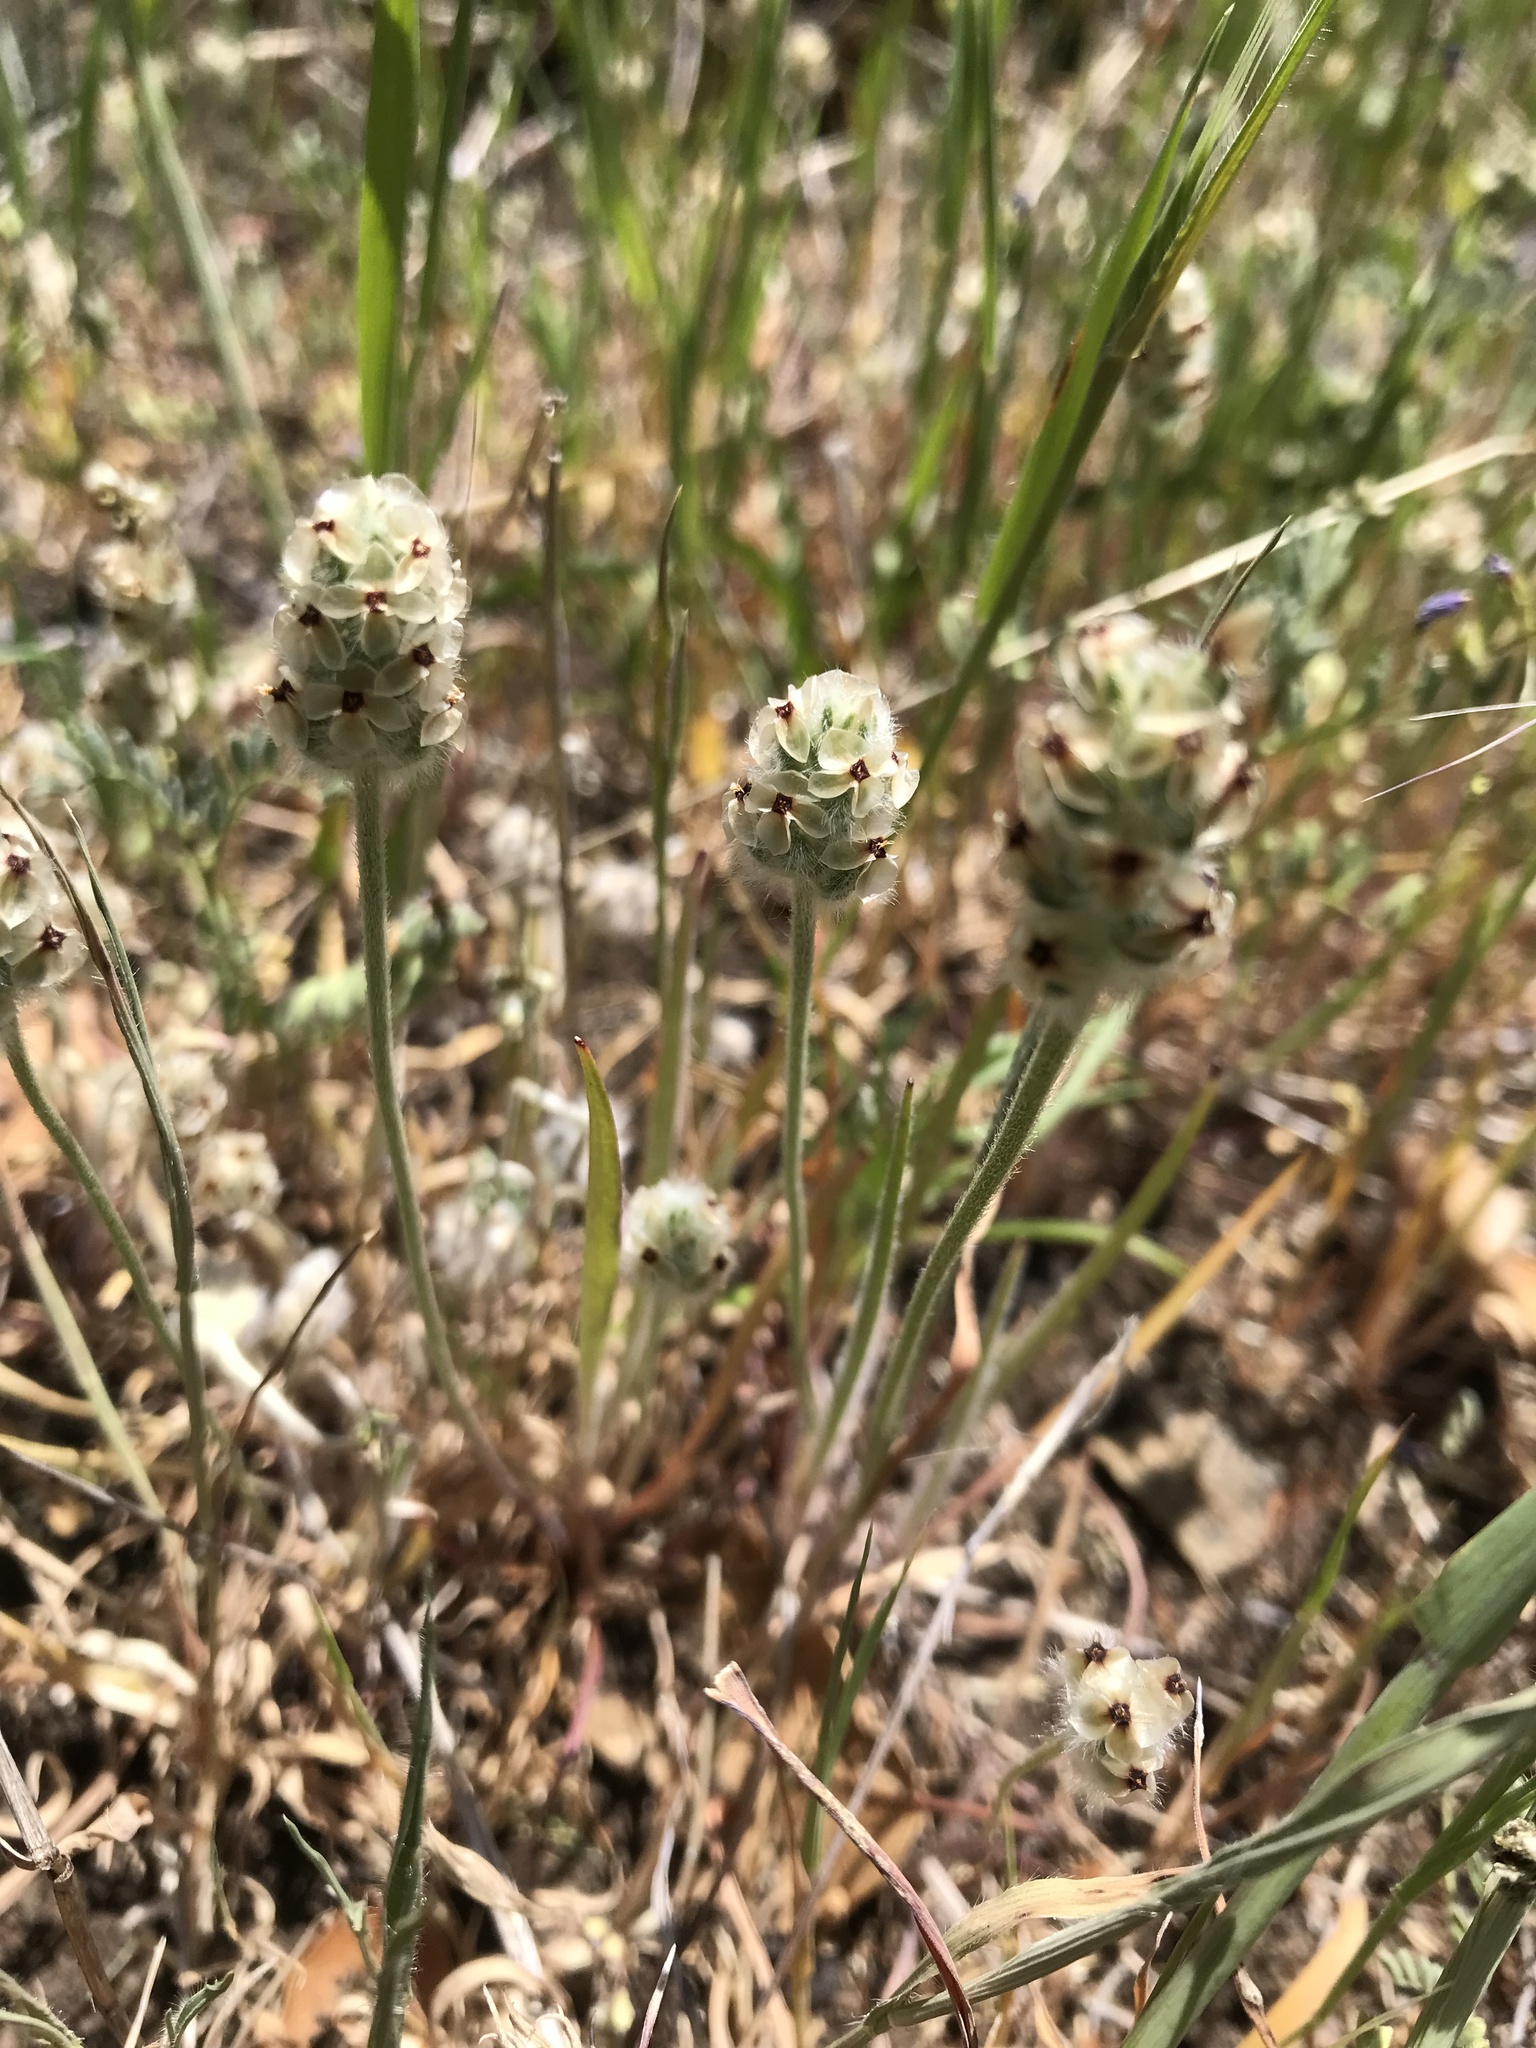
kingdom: Plantae
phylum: Tracheophyta
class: Magnoliopsida
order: Lamiales
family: Plantaginaceae
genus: Plantago
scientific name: Plantago erecta
